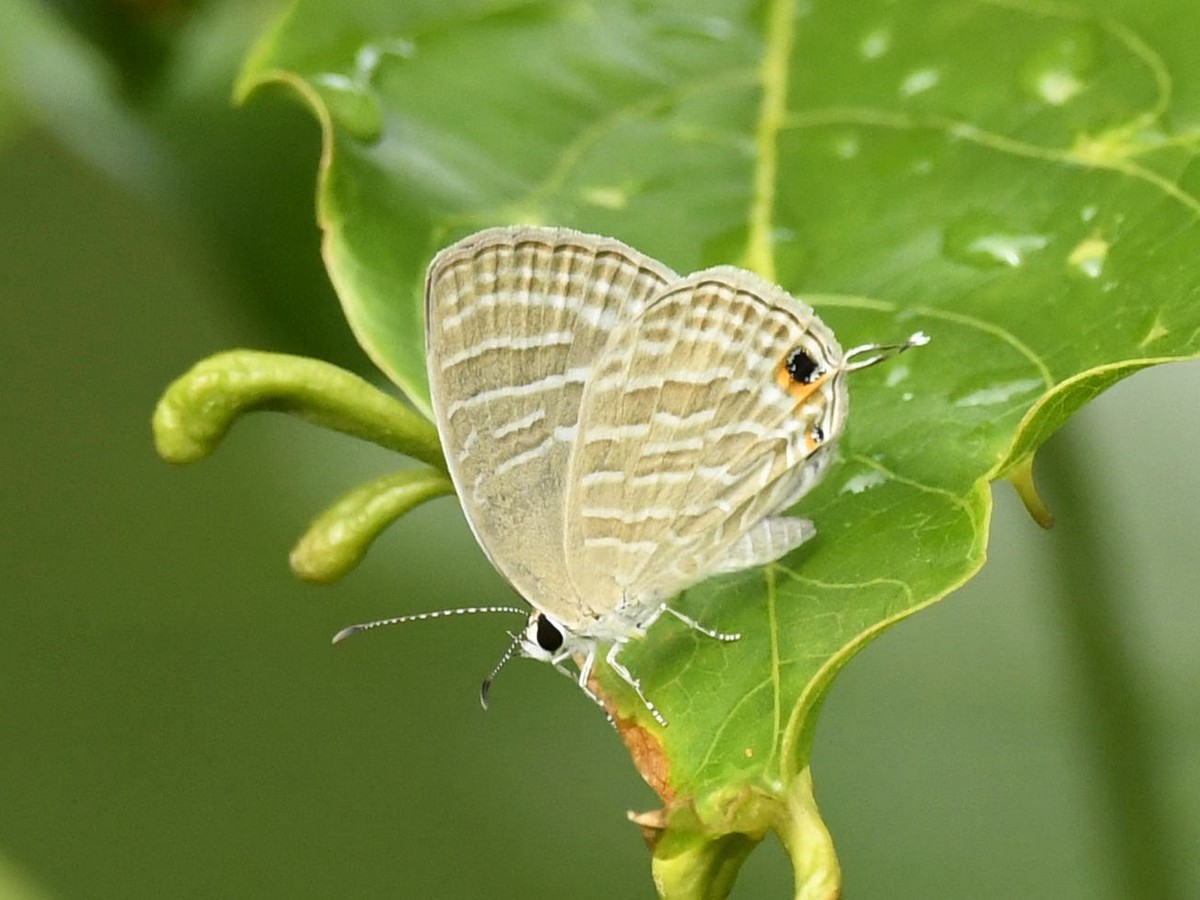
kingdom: Animalia
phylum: Arthropoda
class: Insecta
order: Lepidoptera
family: Lycaenidae
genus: Jamides
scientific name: Jamides celeno
